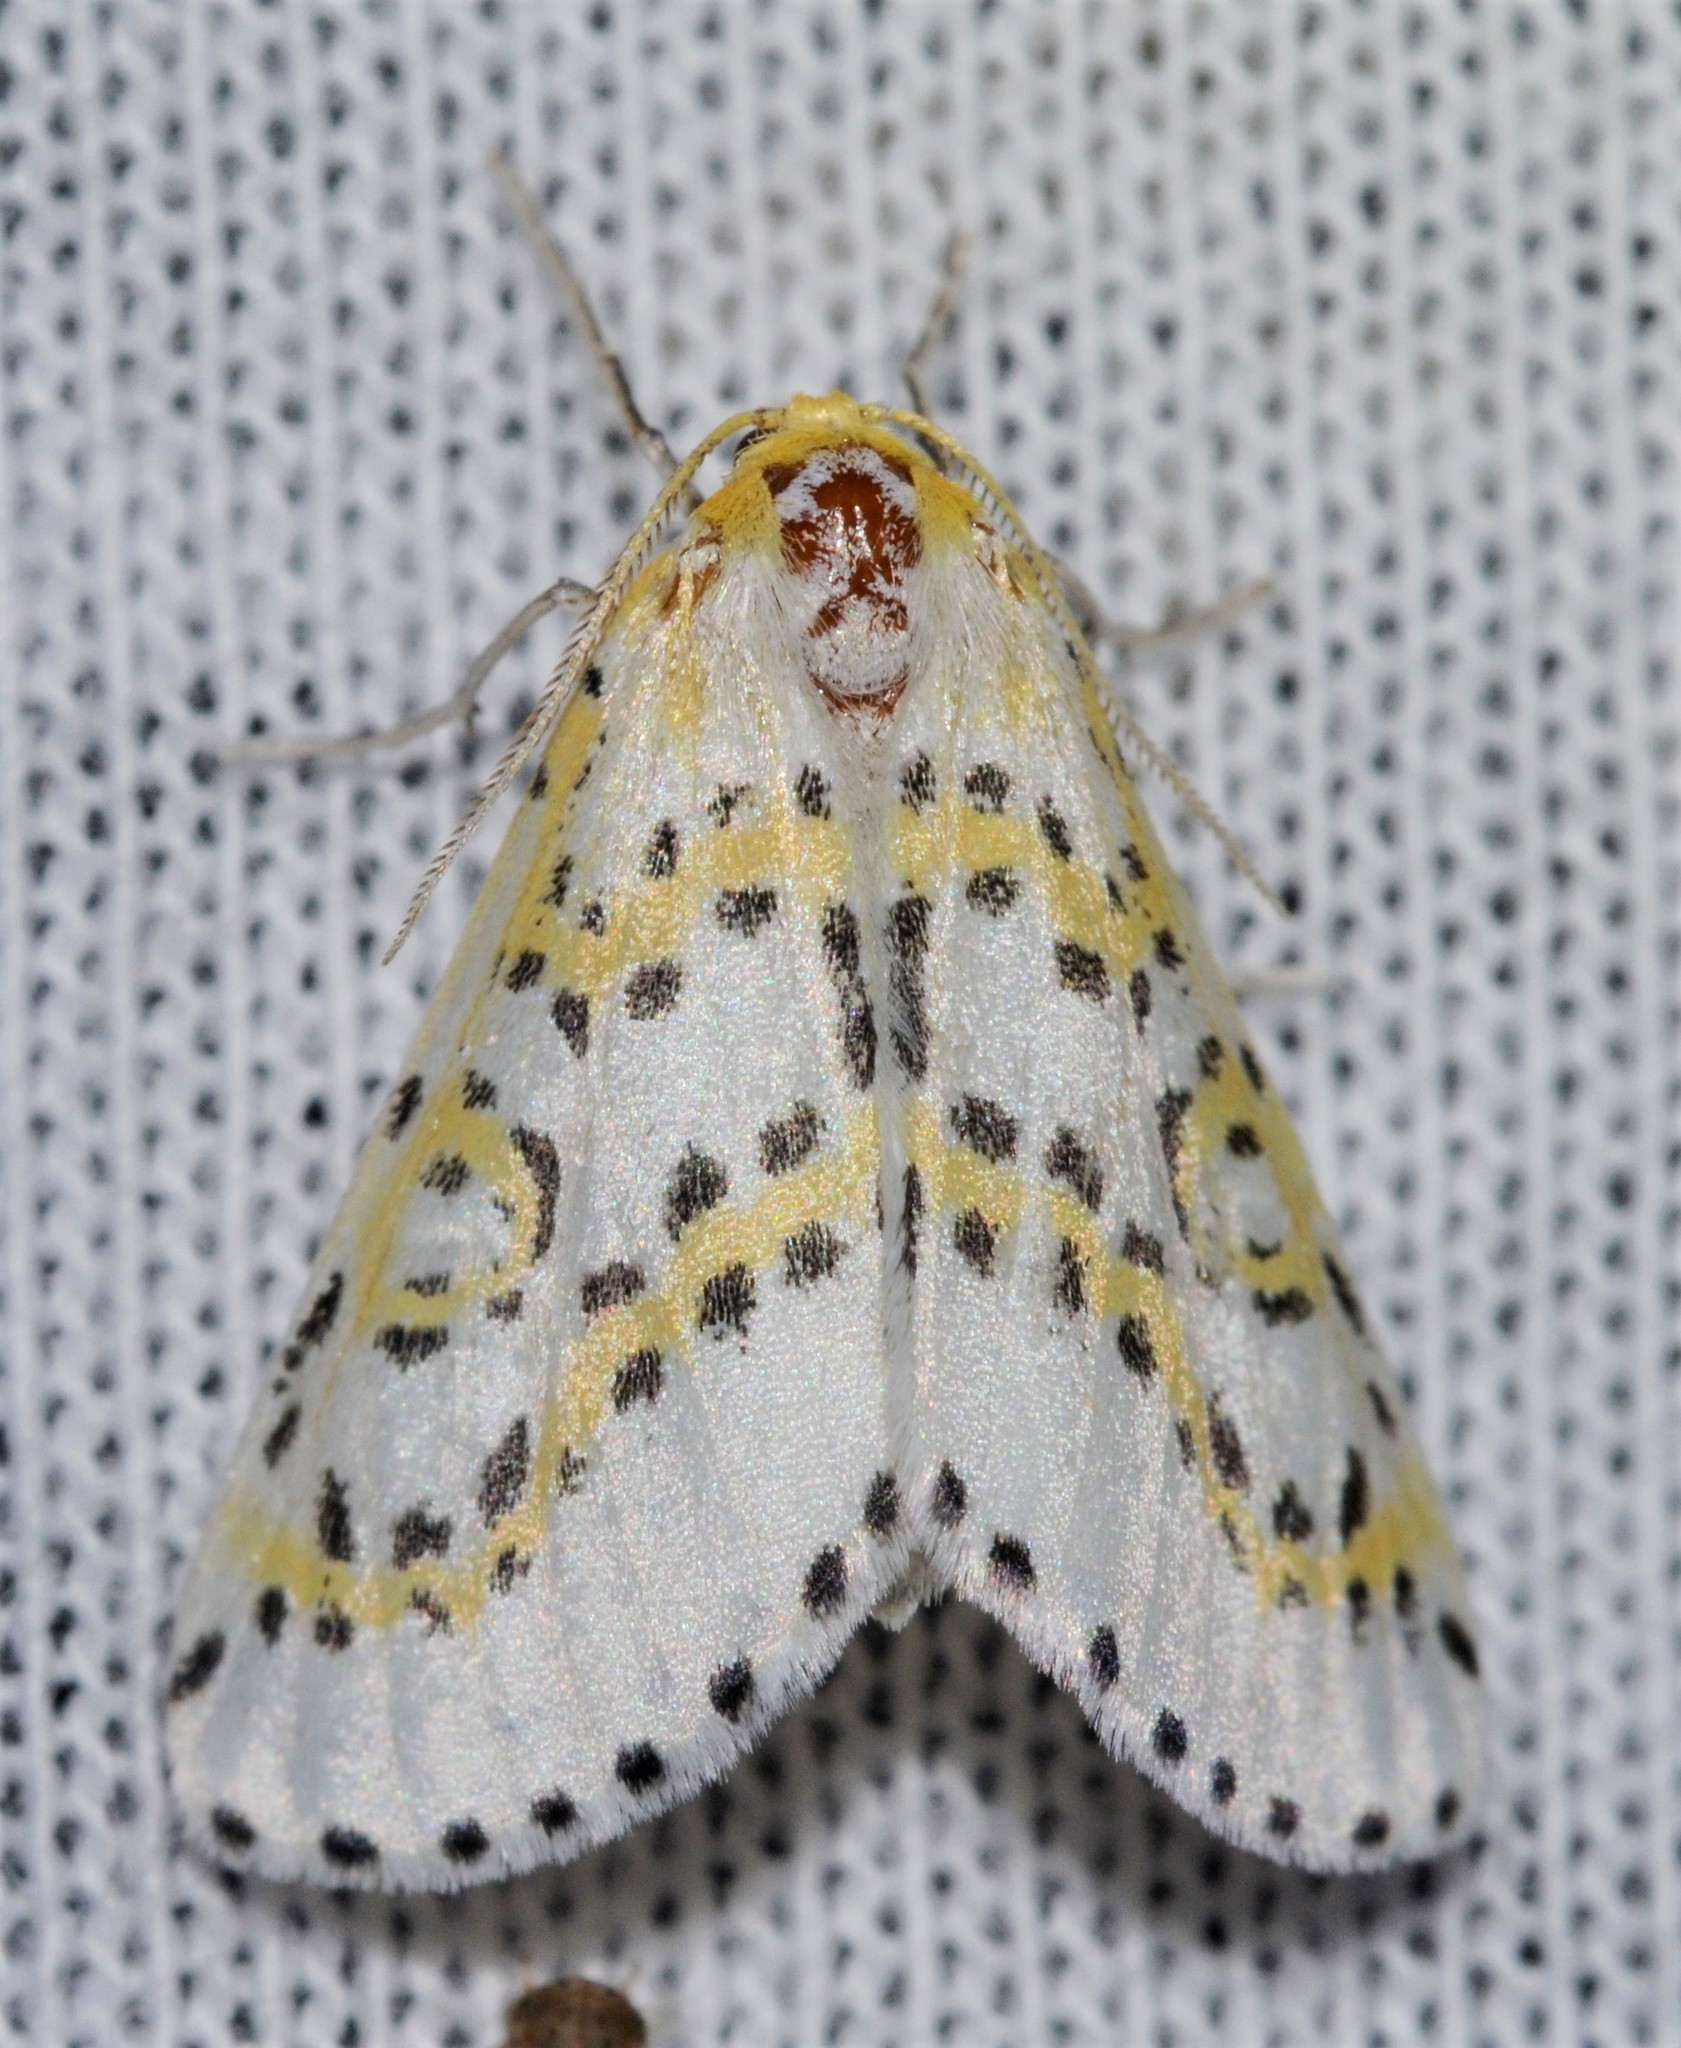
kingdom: Animalia
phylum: Arthropoda
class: Insecta
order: Lepidoptera
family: Geometridae
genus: Philtraea
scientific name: Philtraea monillata
